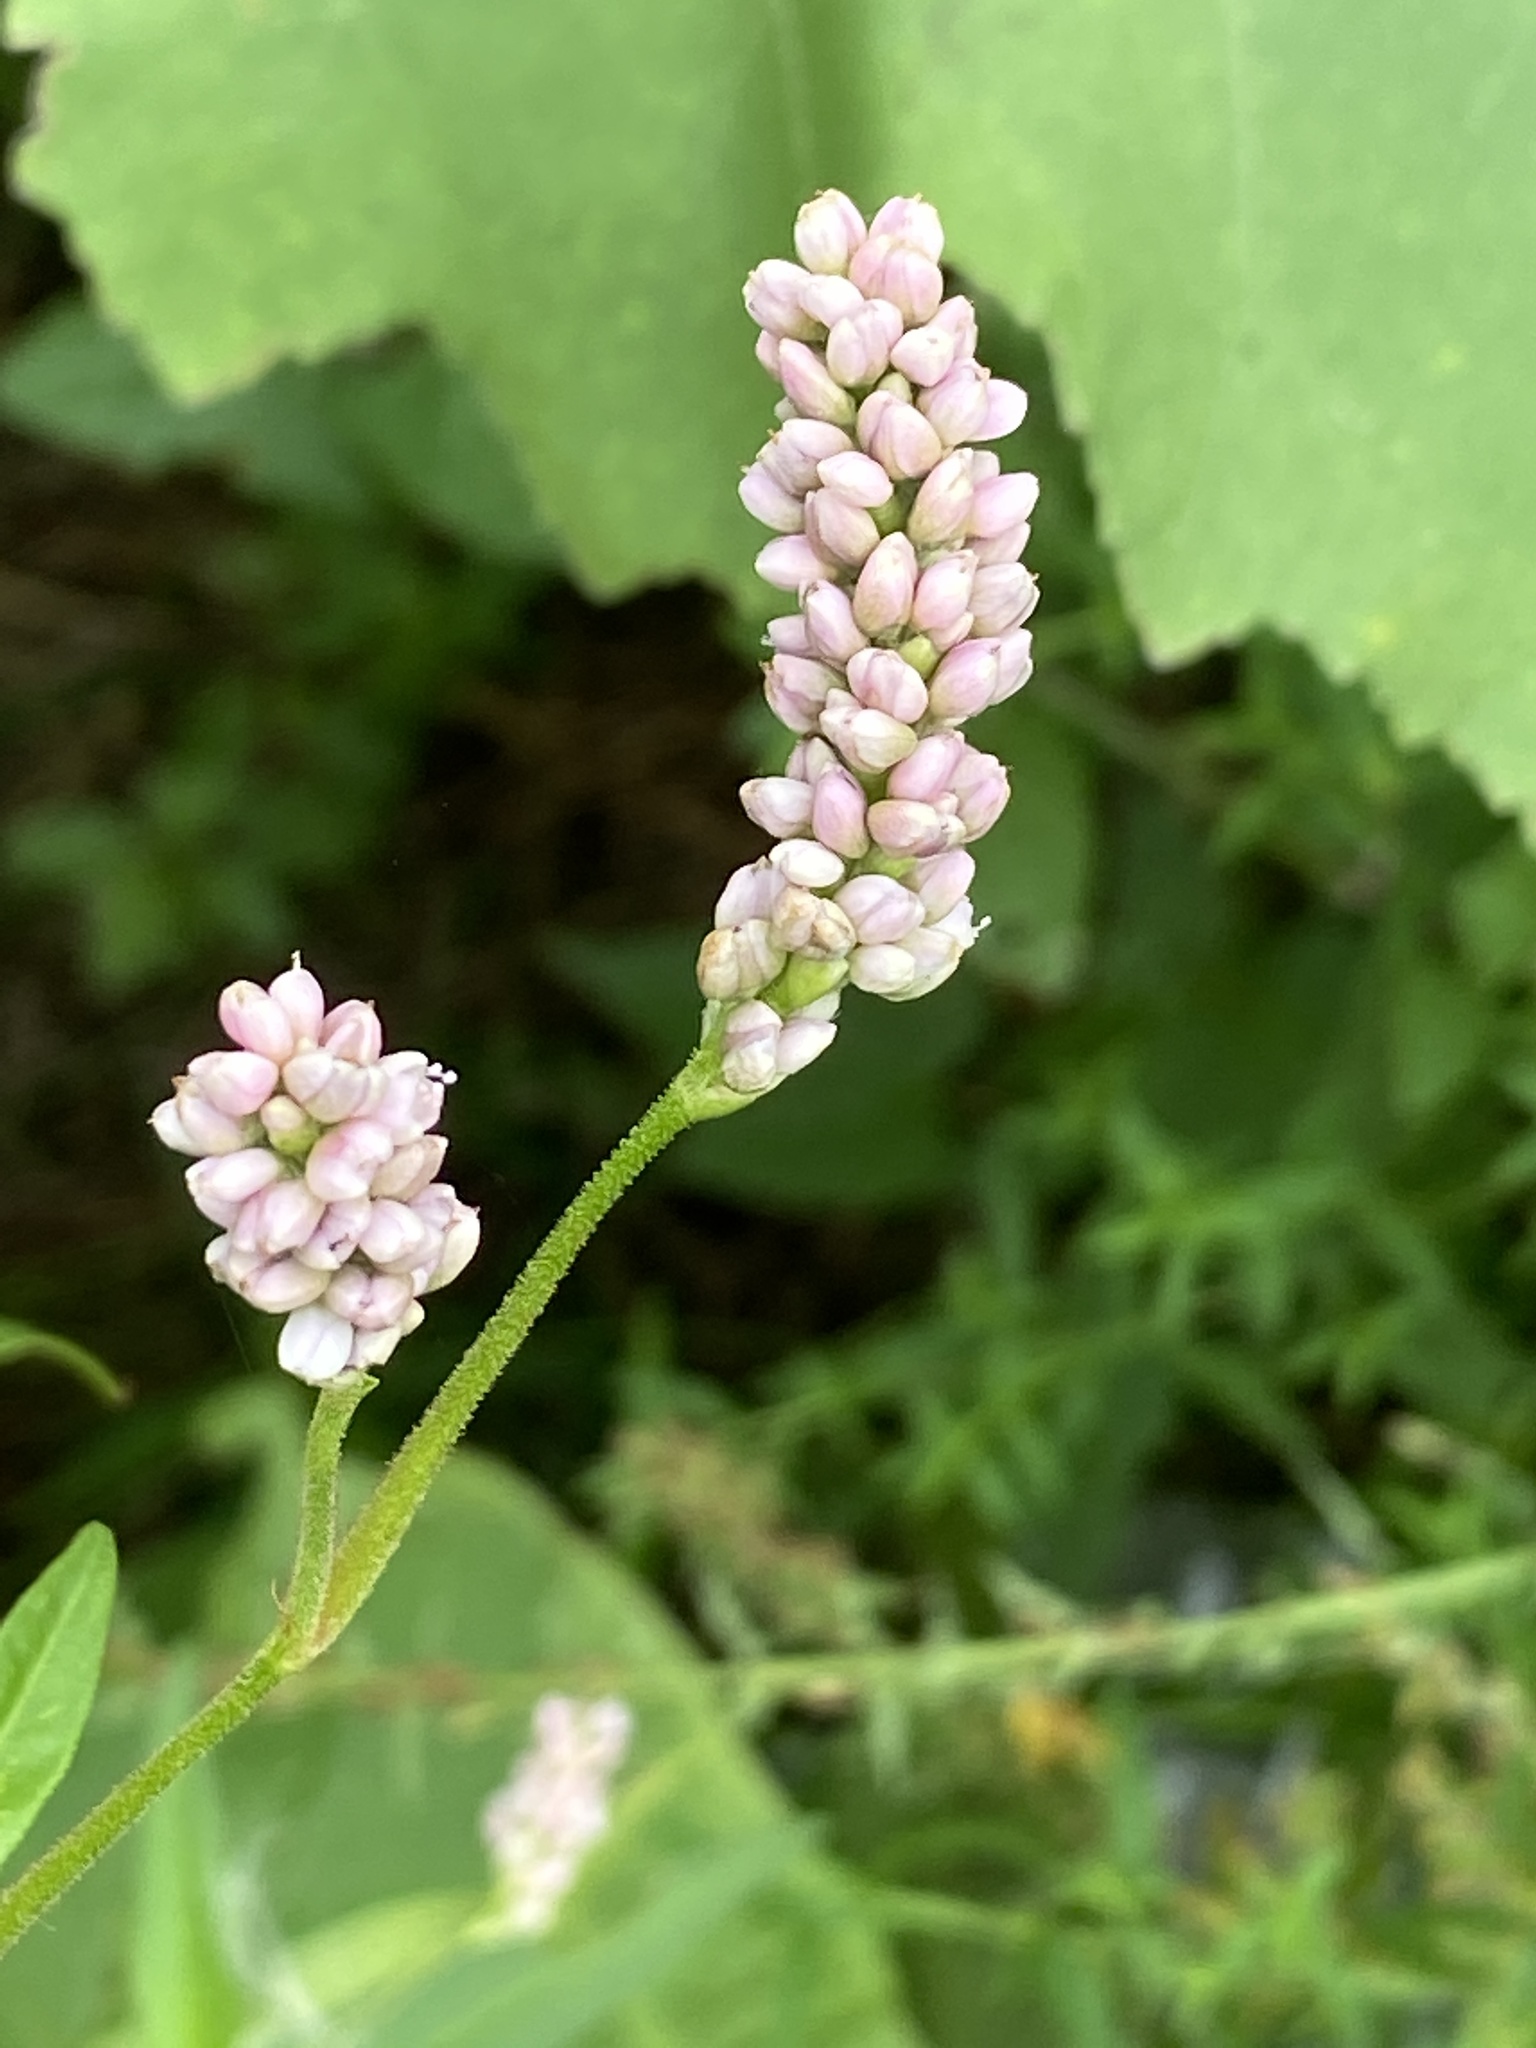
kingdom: Plantae
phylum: Tracheophyta
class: Magnoliopsida
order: Caryophyllales
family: Polygonaceae
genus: Persicaria
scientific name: Persicaria pensylvanica
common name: Pinkweed
